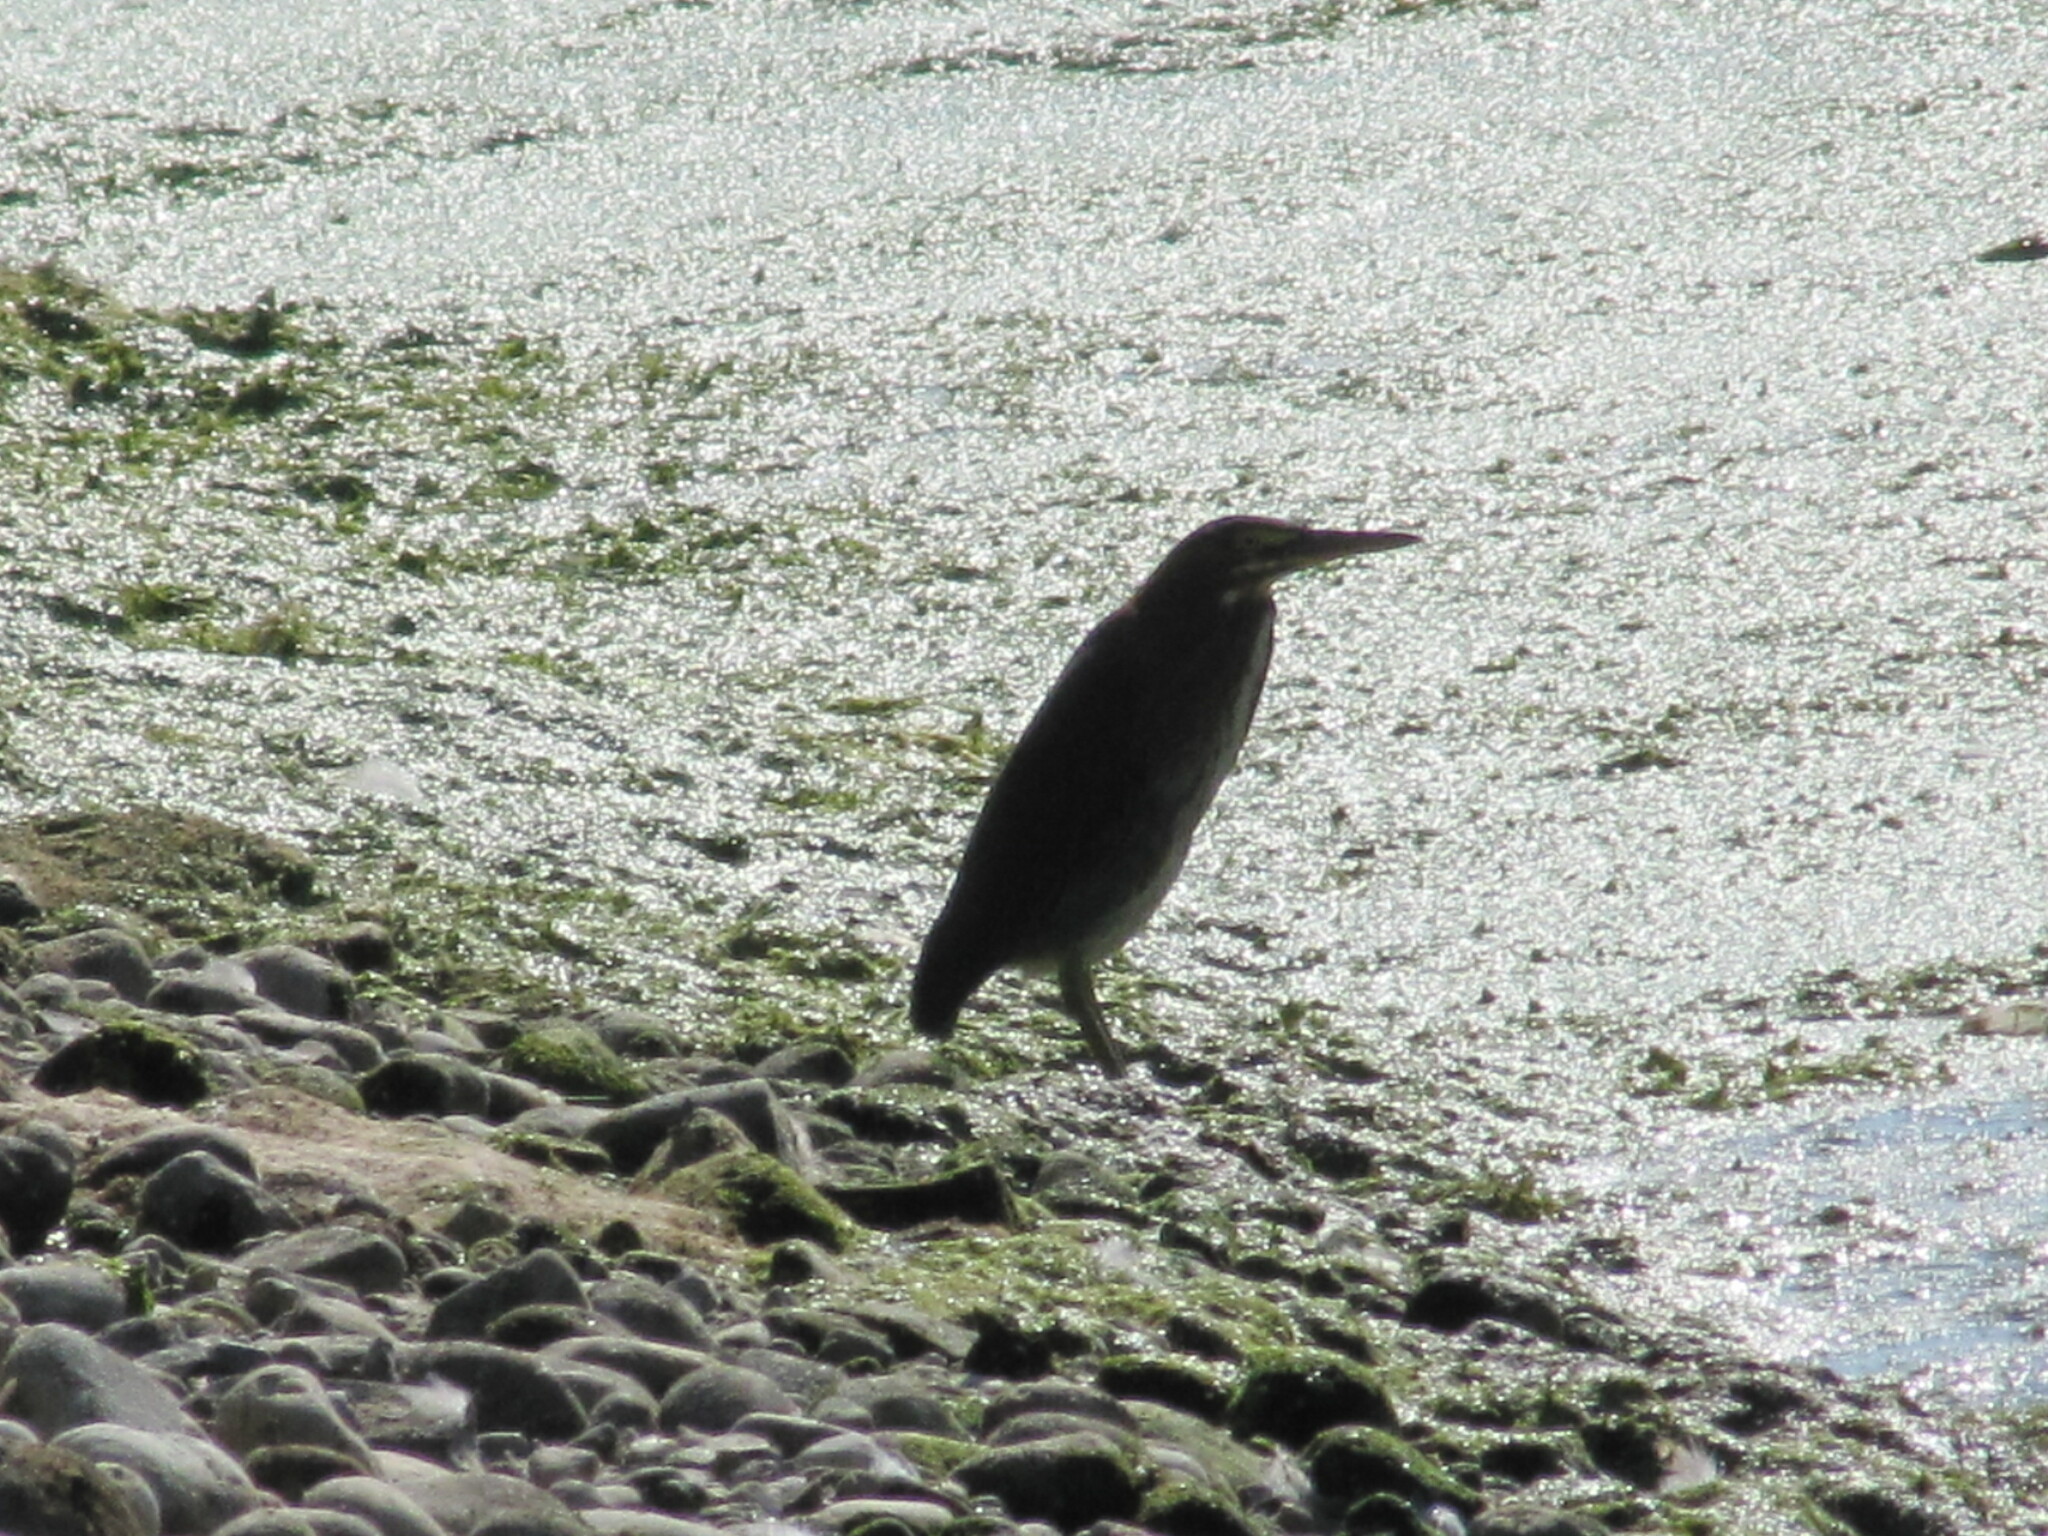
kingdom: Animalia
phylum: Chordata
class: Aves
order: Pelecaniformes
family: Ardeidae
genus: Butorides
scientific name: Butorides virescens
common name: Green heron
